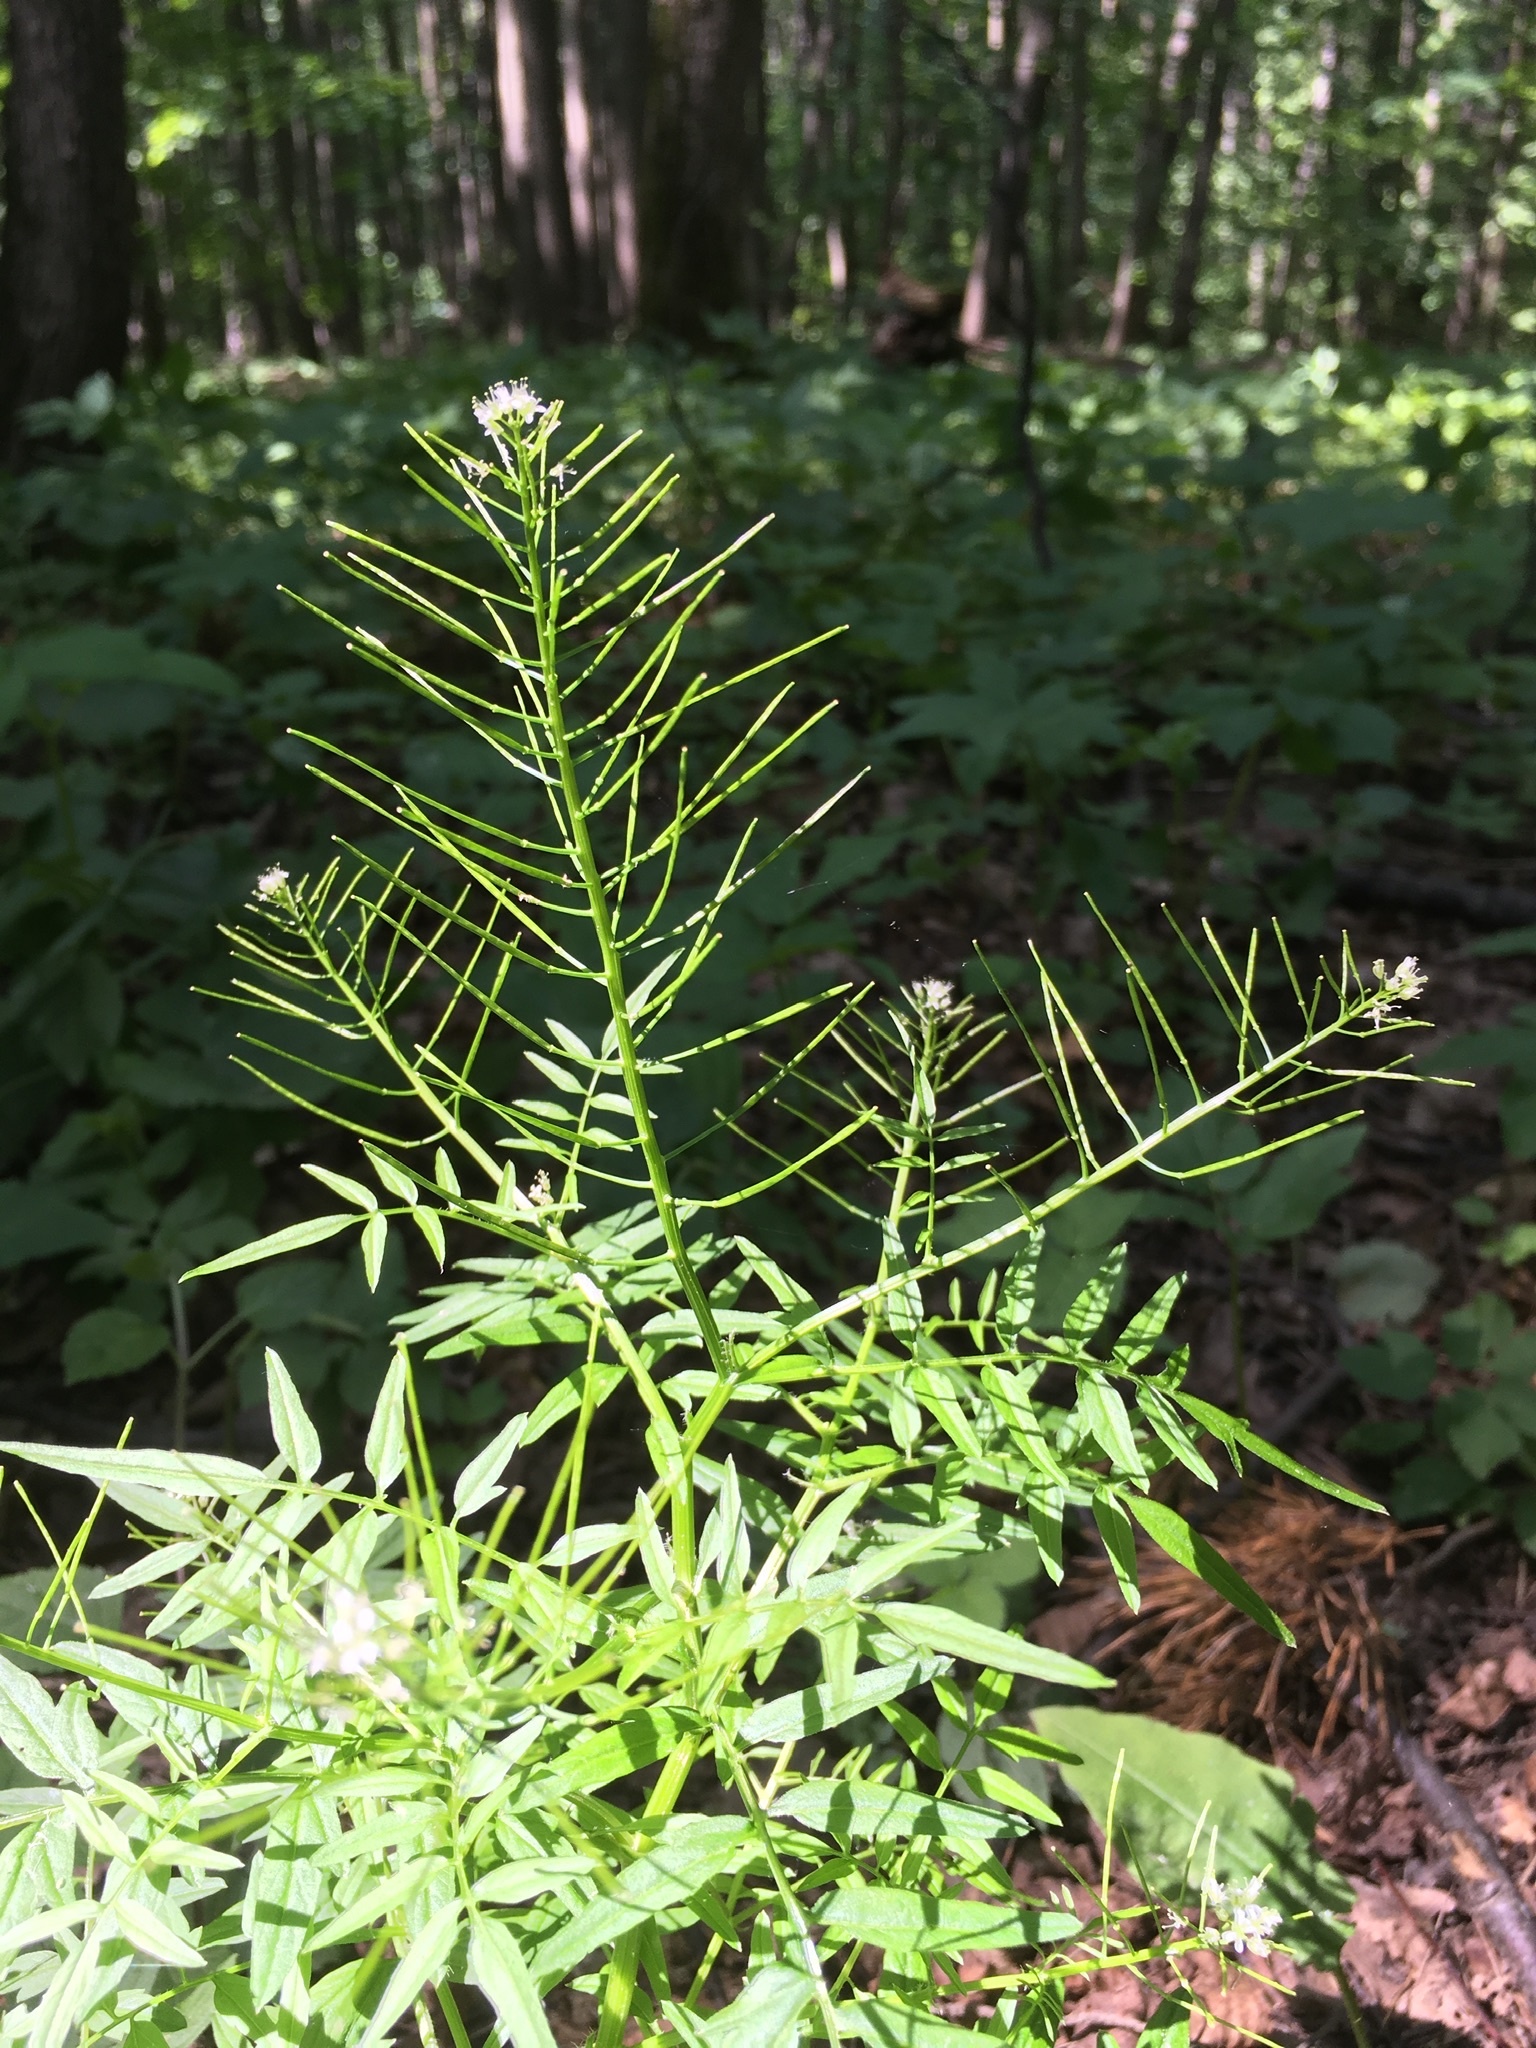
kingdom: Plantae
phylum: Tracheophyta
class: Magnoliopsida
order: Brassicales
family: Brassicaceae
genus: Cardamine
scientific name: Cardamine impatiens
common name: Narrow-leaved bitter-cress
